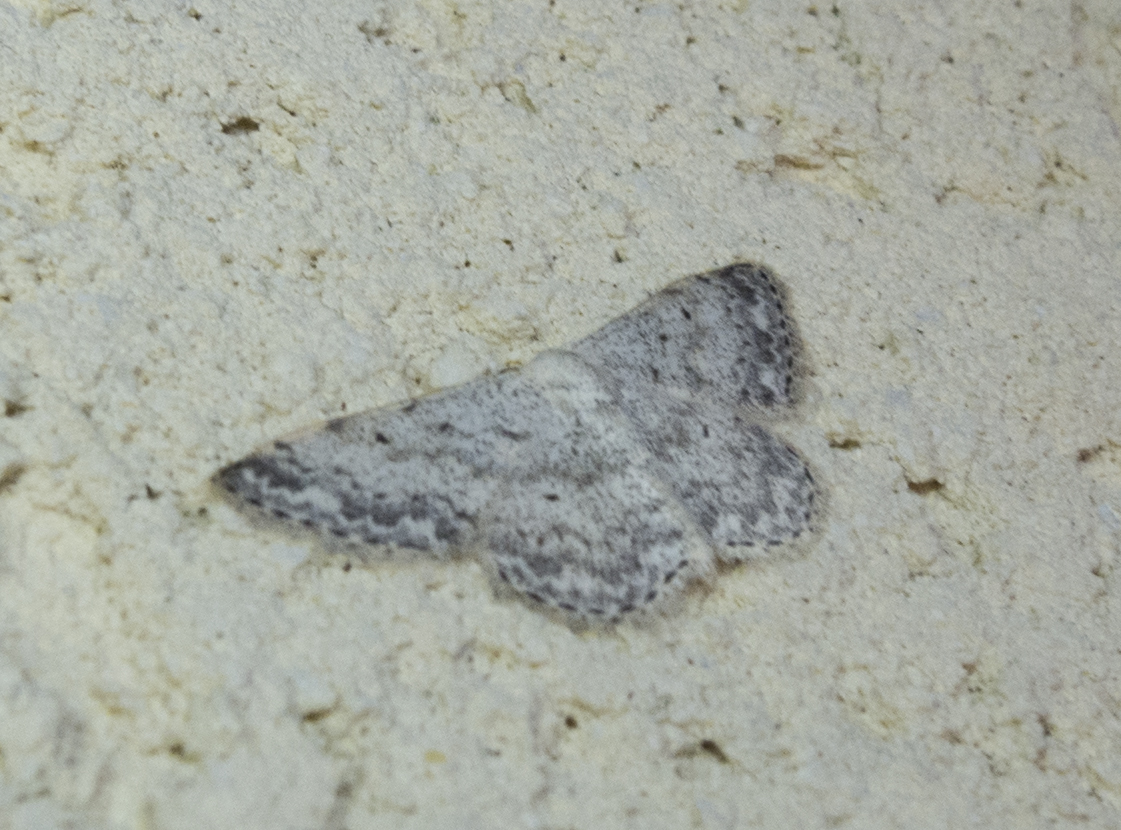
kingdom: Animalia
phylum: Arthropoda
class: Insecta
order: Lepidoptera
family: Geometridae
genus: Scopula
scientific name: Scopula marginepunctata
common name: Mullein wave
